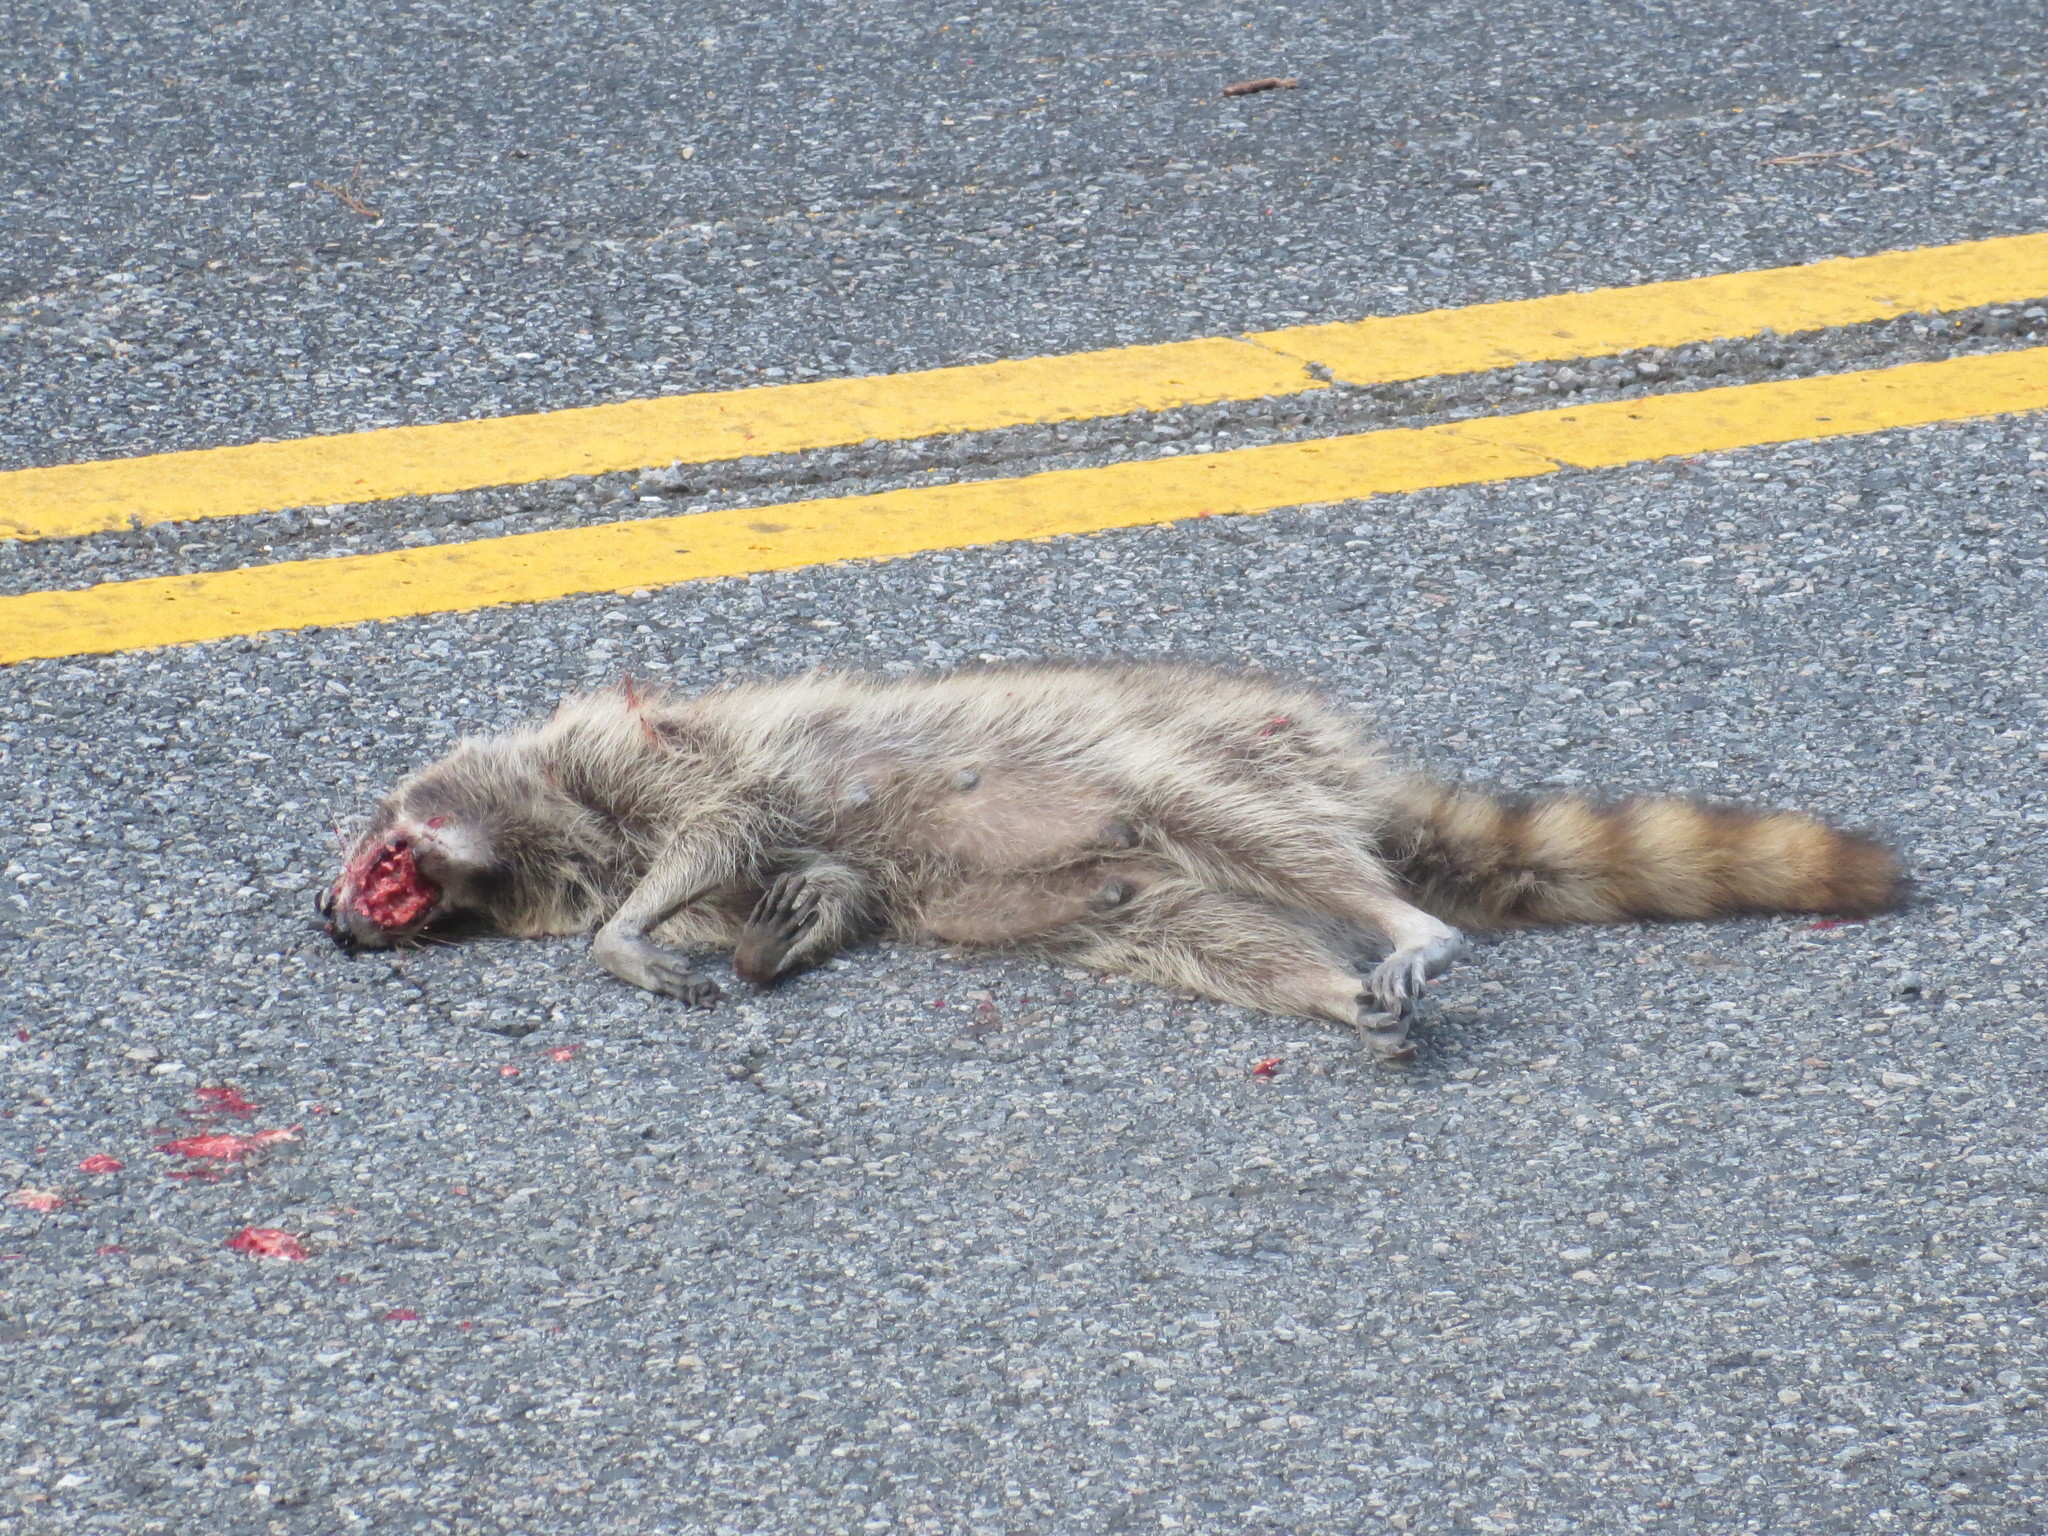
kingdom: Animalia
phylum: Chordata
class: Mammalia
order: Carnivora
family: Procyonidae
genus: Procyon
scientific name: Procyon lotor
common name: Raccoon
